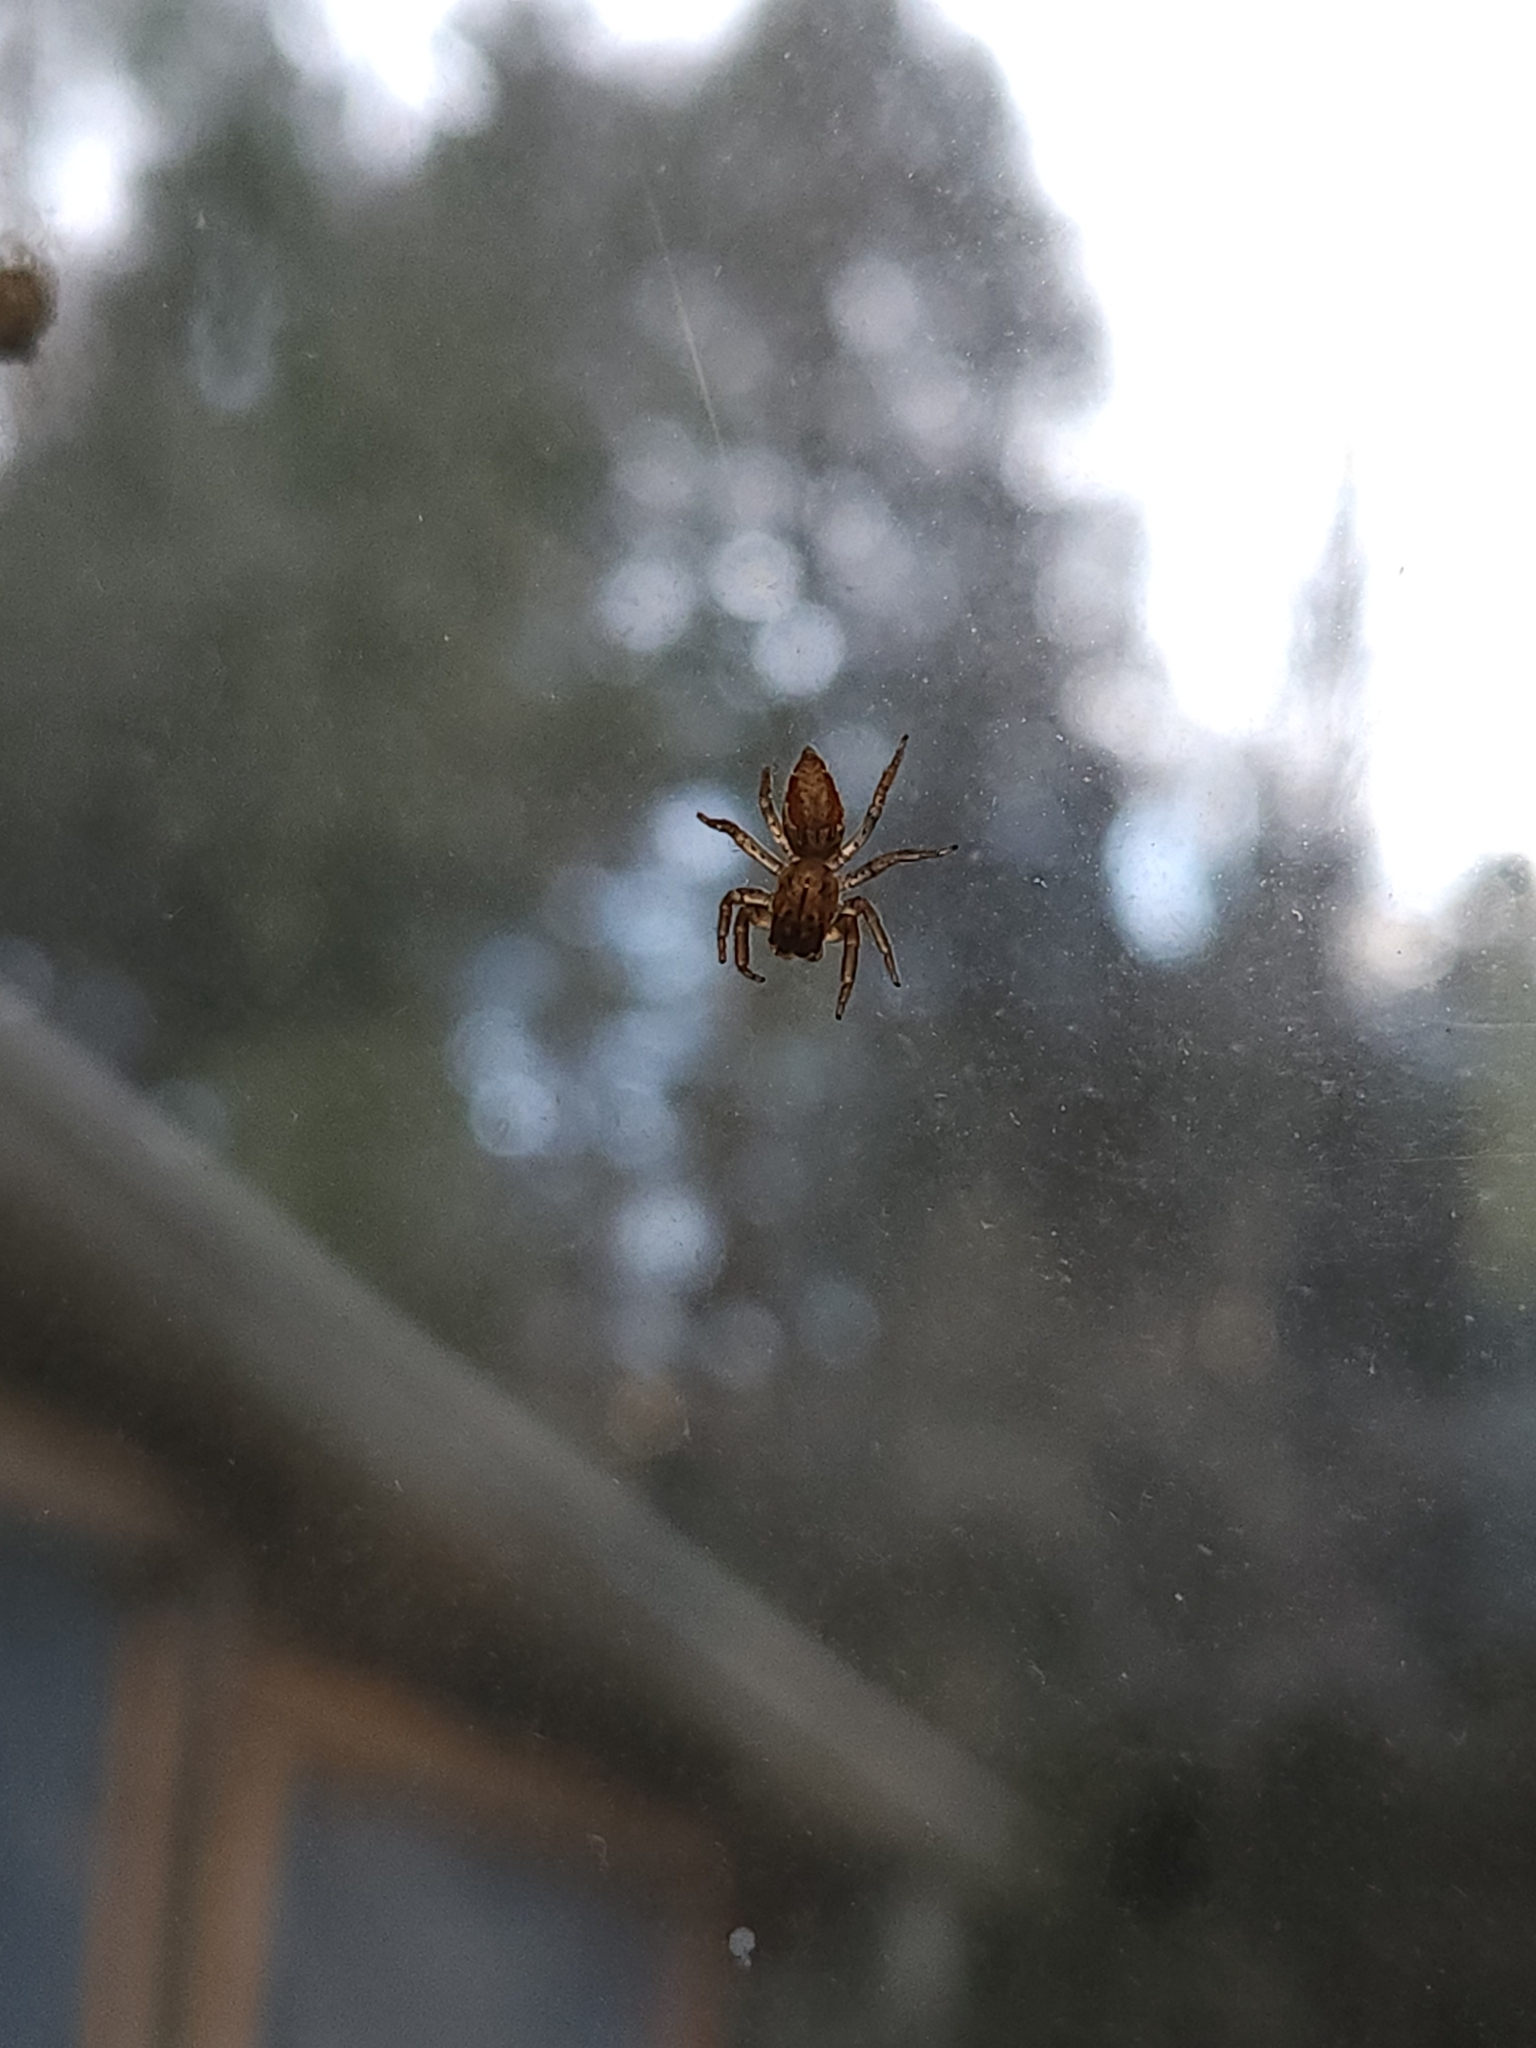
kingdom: Animalia
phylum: Arthropoda
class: Arachnida
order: Araneae
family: Salticidae
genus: Maevia
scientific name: Maevia inclemens
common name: Dimorphic jumper
